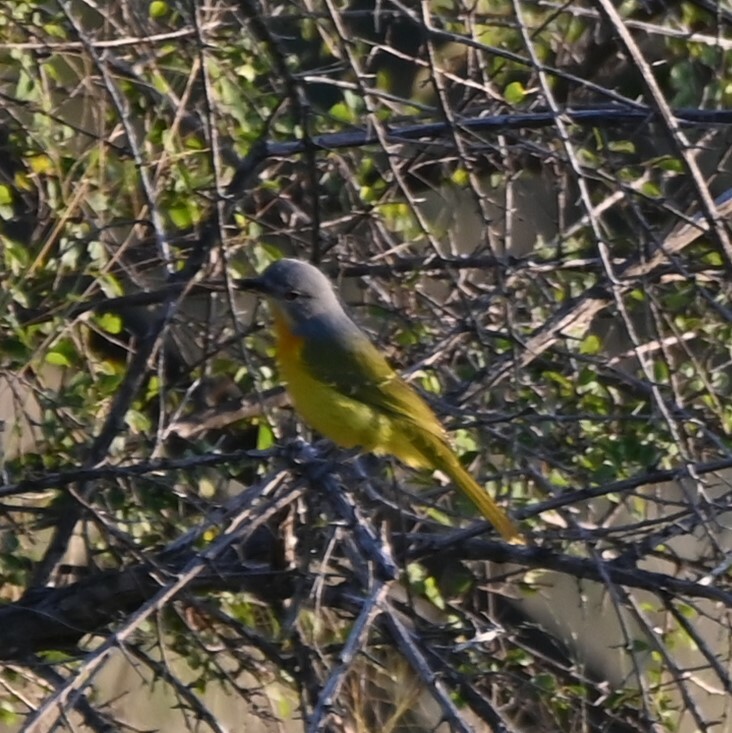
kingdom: Animalia
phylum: Chordata
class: Aves
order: Passeriformes
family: Malaconotidae
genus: Chlorophoneus
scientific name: Chlorophoneus sulfureopectus
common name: Orange-breasted bushshrike
